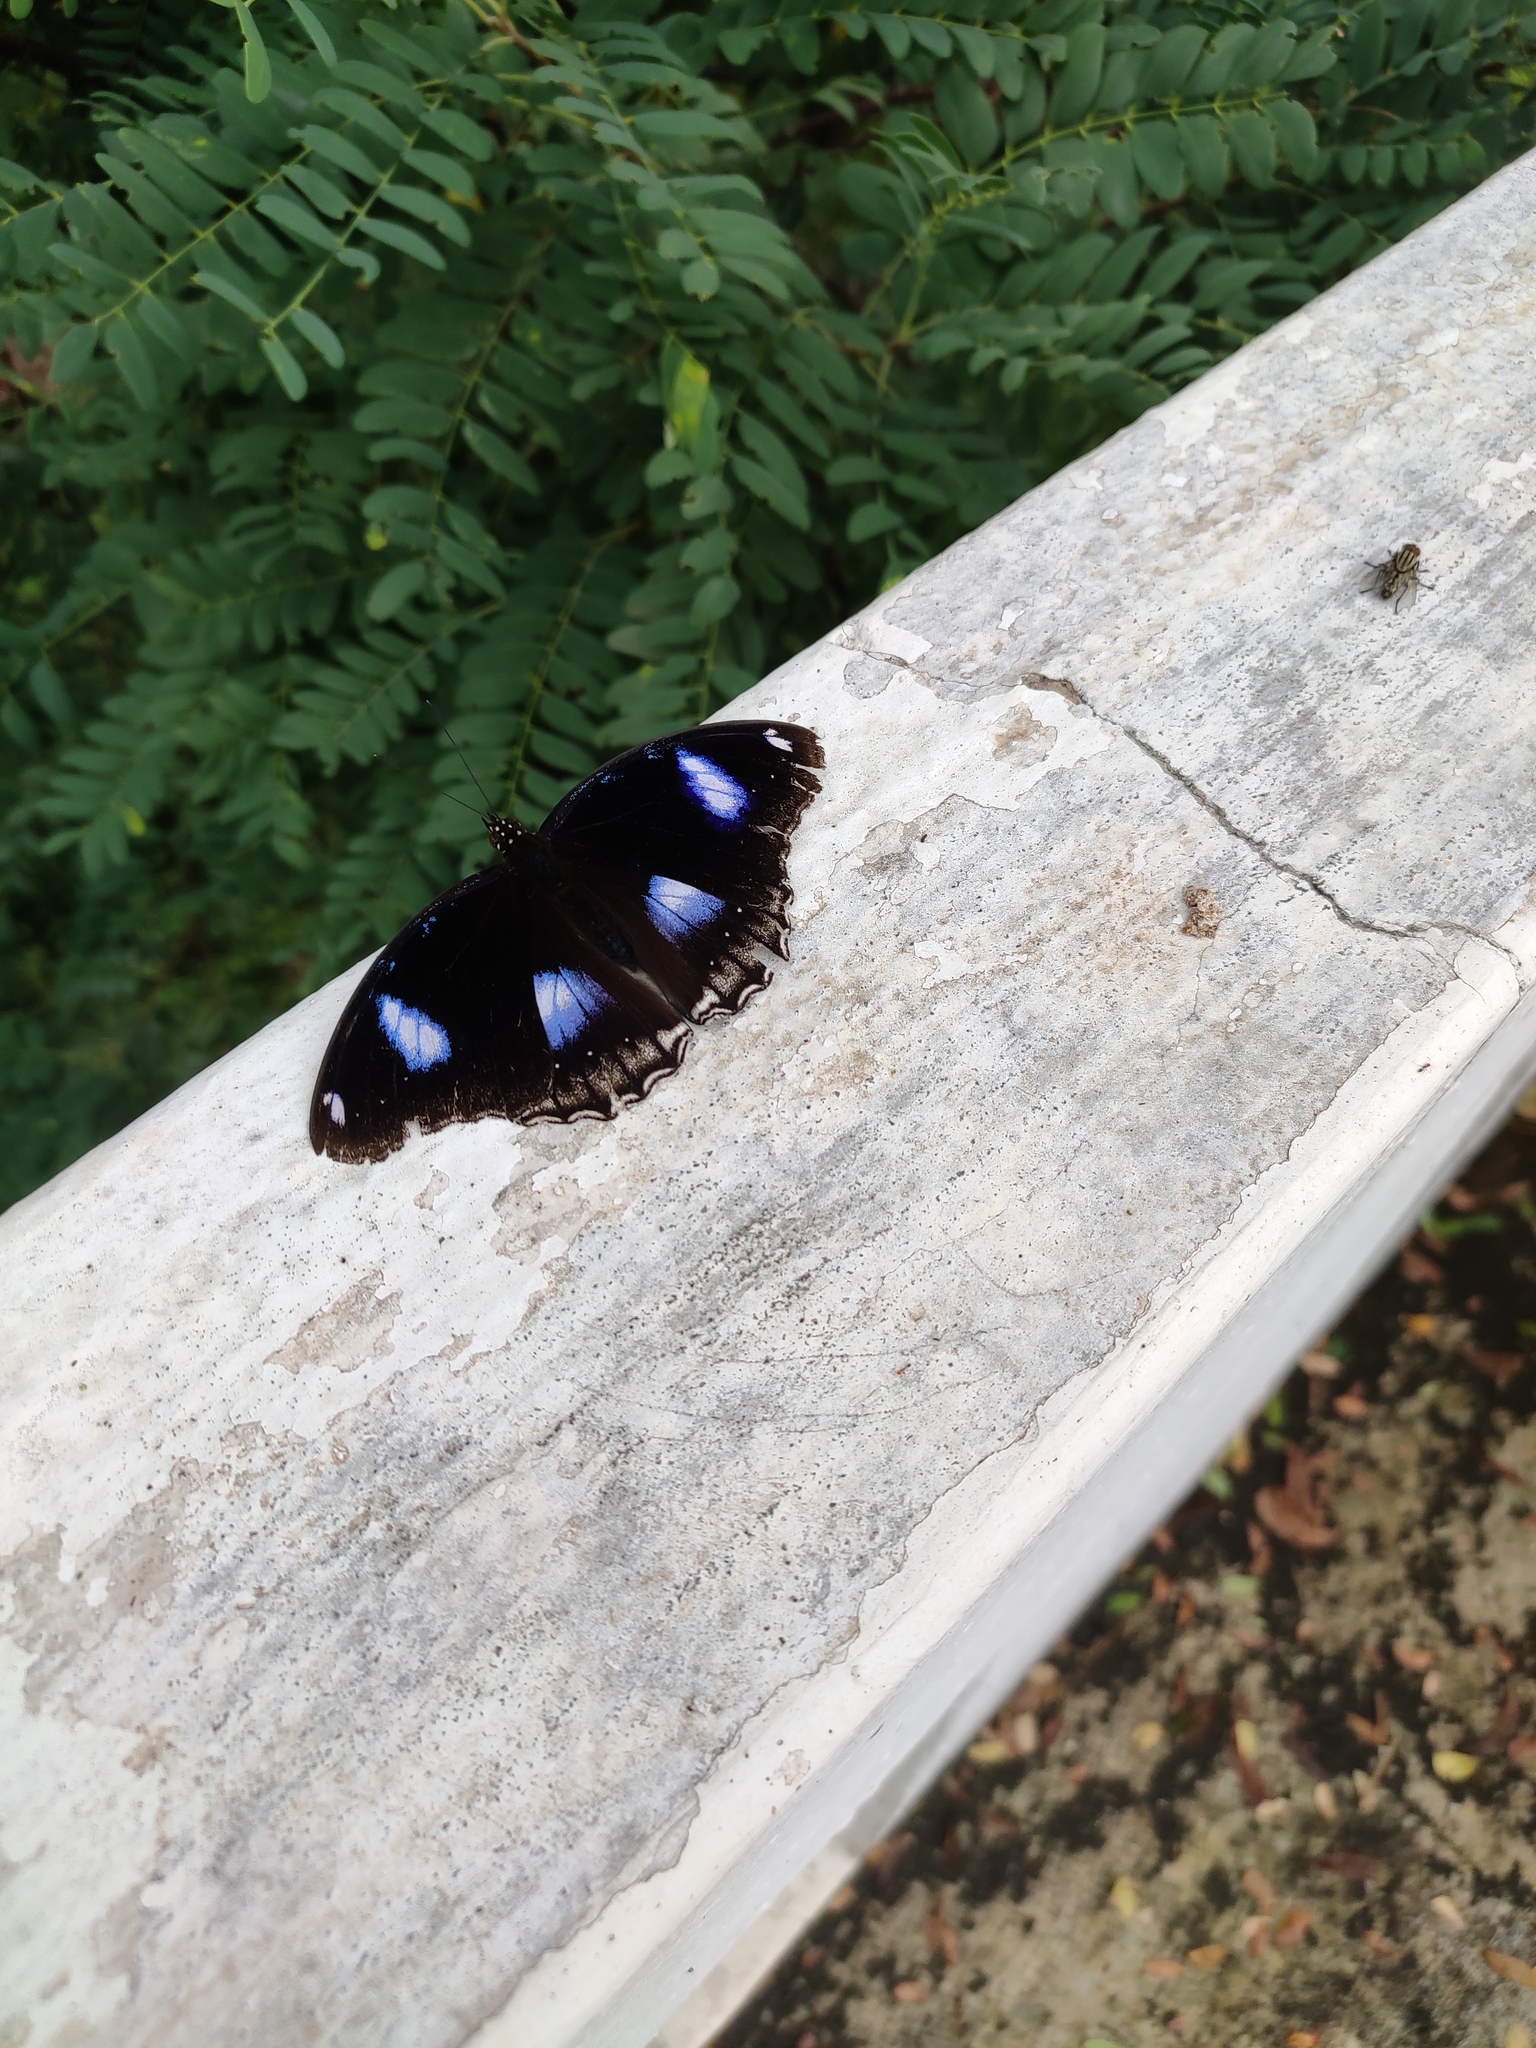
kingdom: Animalia
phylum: Arthropoda
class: Insecta
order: Lepidoptera
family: Nymphalidae
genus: Hypolimnas
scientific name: Hypolimnas bolina
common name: Great eggfly
